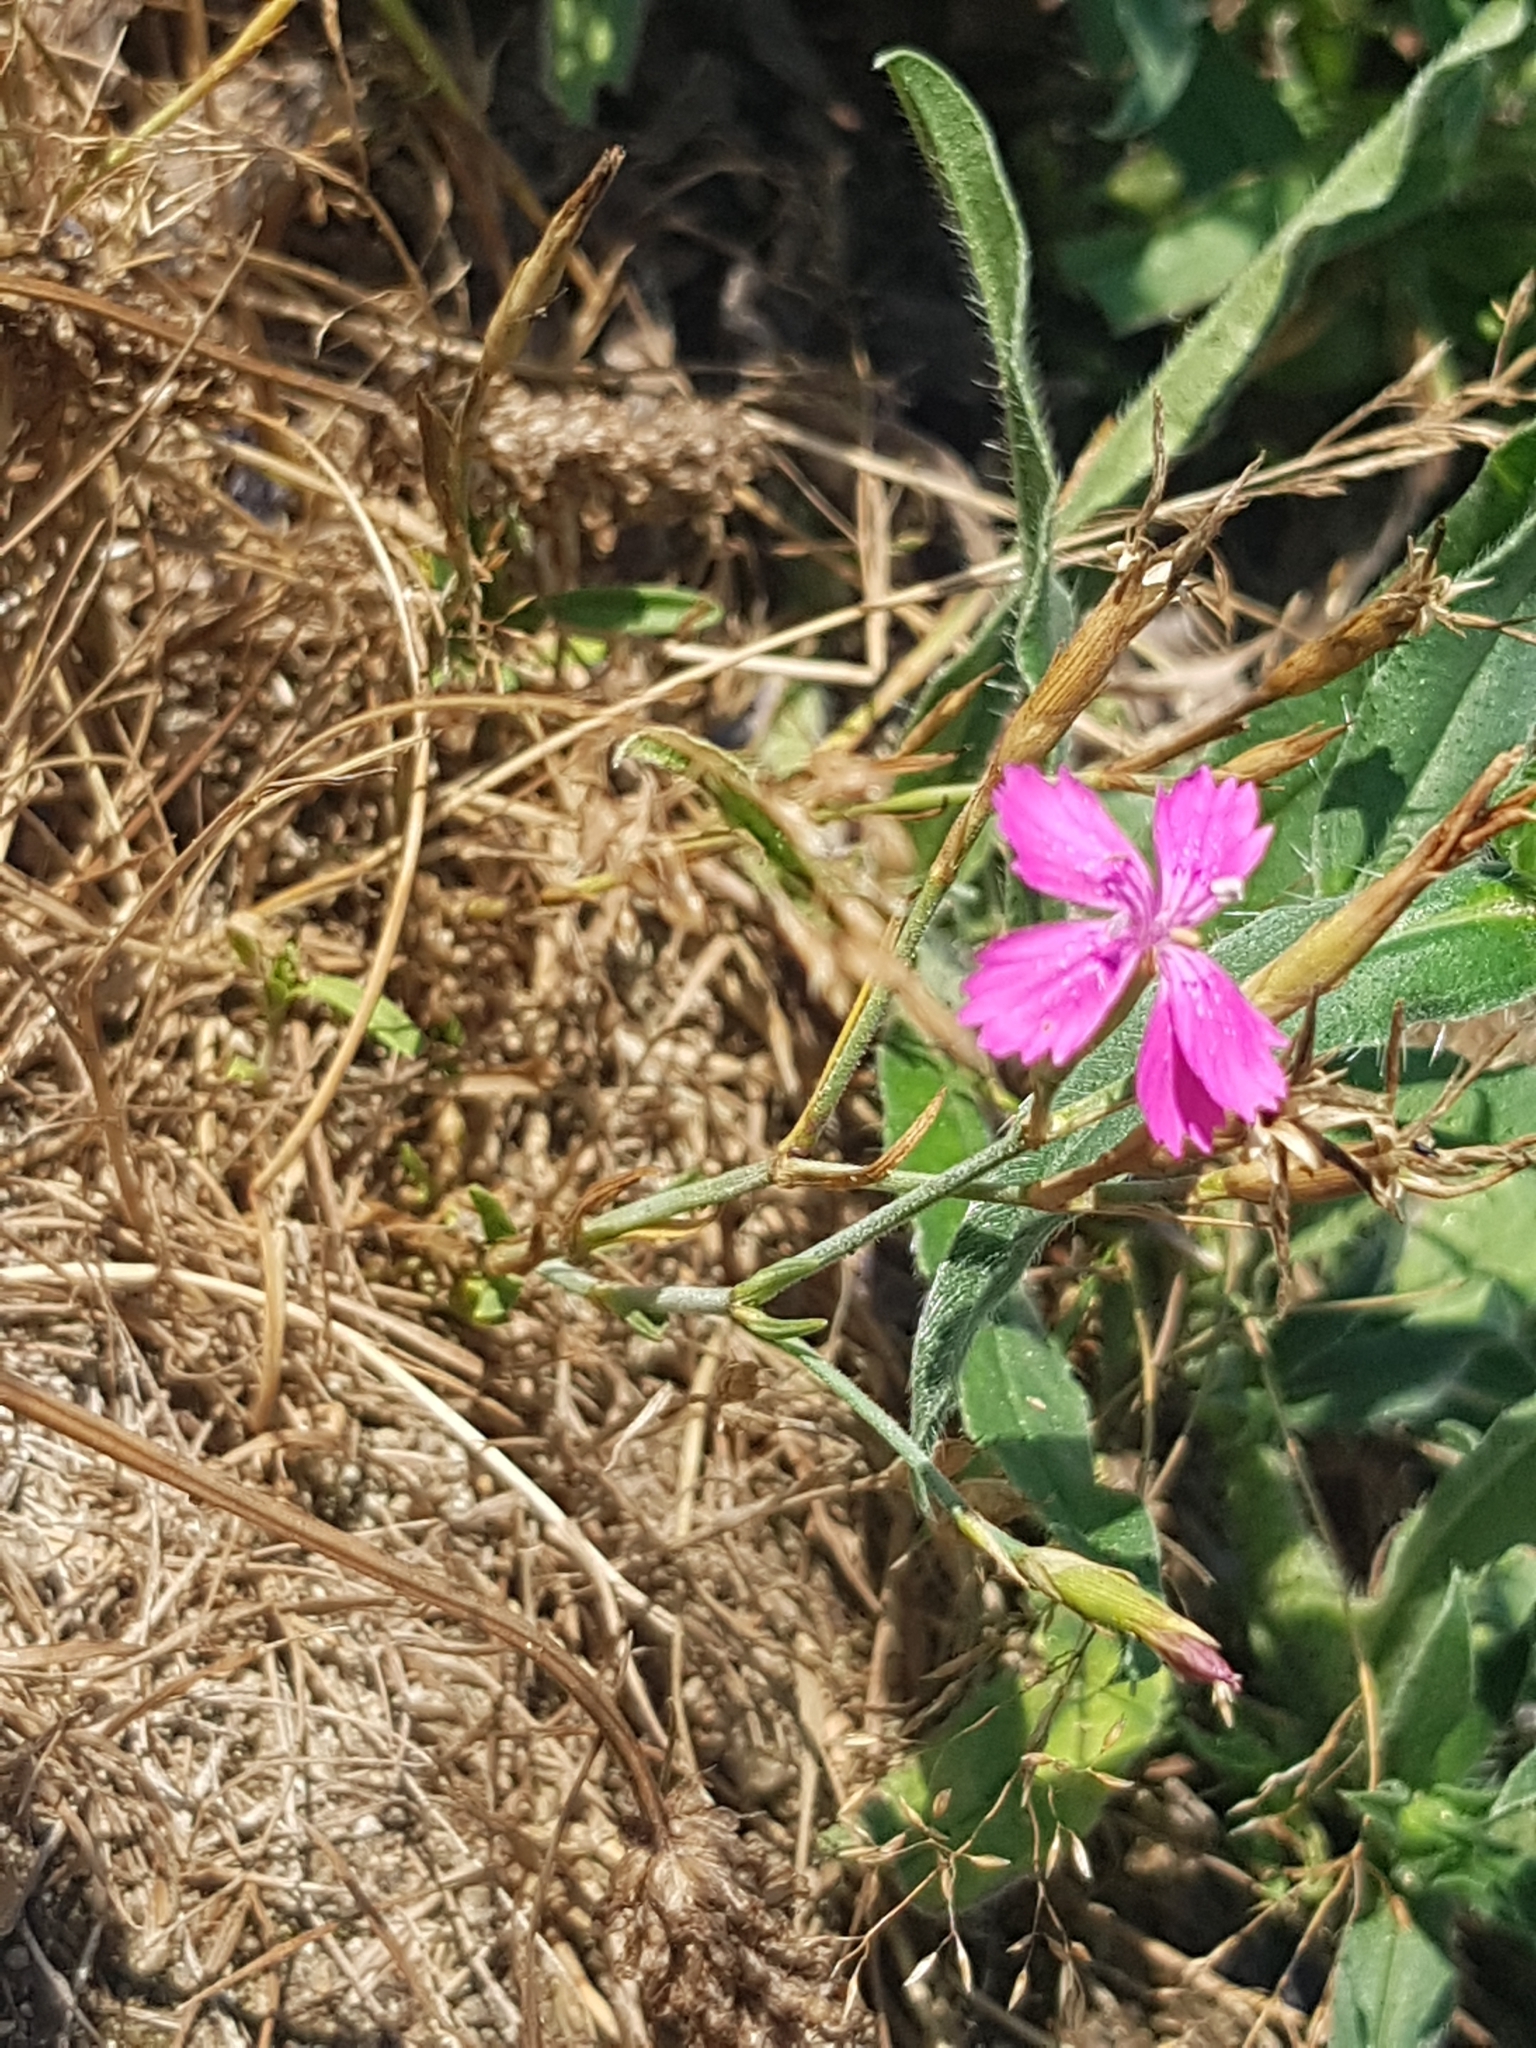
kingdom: Plantae
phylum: Tracheophyta
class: Magnoliopsida
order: Caryophyllales
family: Caryophyllaceae
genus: Dianthus
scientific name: Dianthus deltoides
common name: Maiden pink
